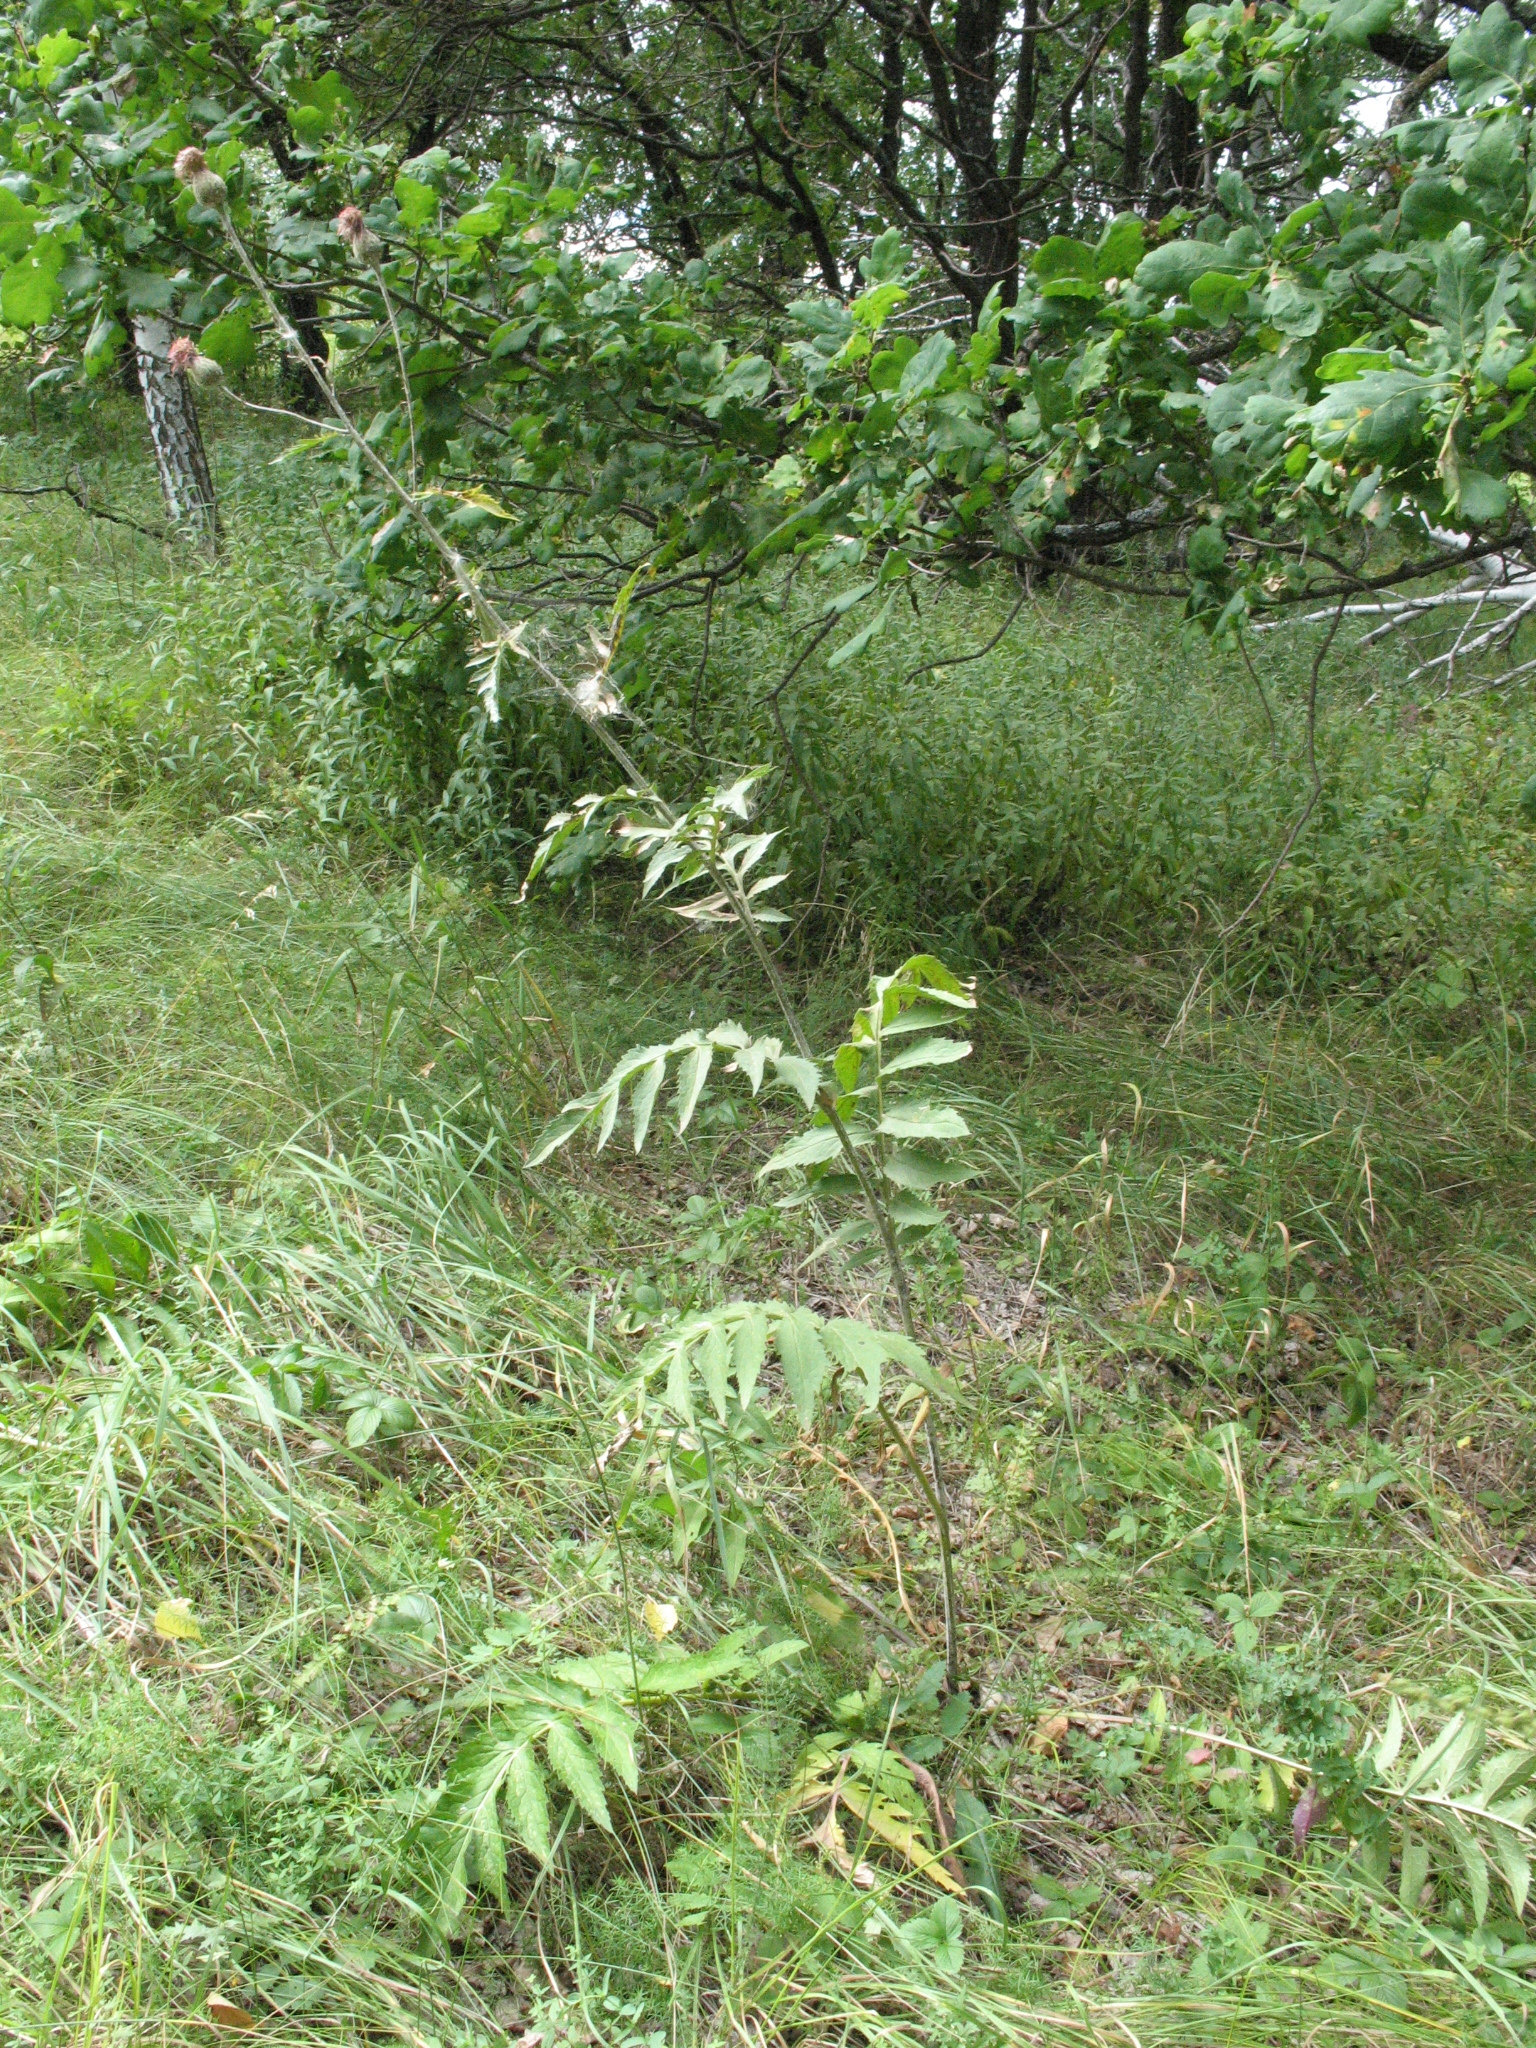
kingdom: Plantae
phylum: Tracheophyta
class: Magnoliopsida
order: Asterales
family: Asteraceae
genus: Serratula
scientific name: Serratula coronata
